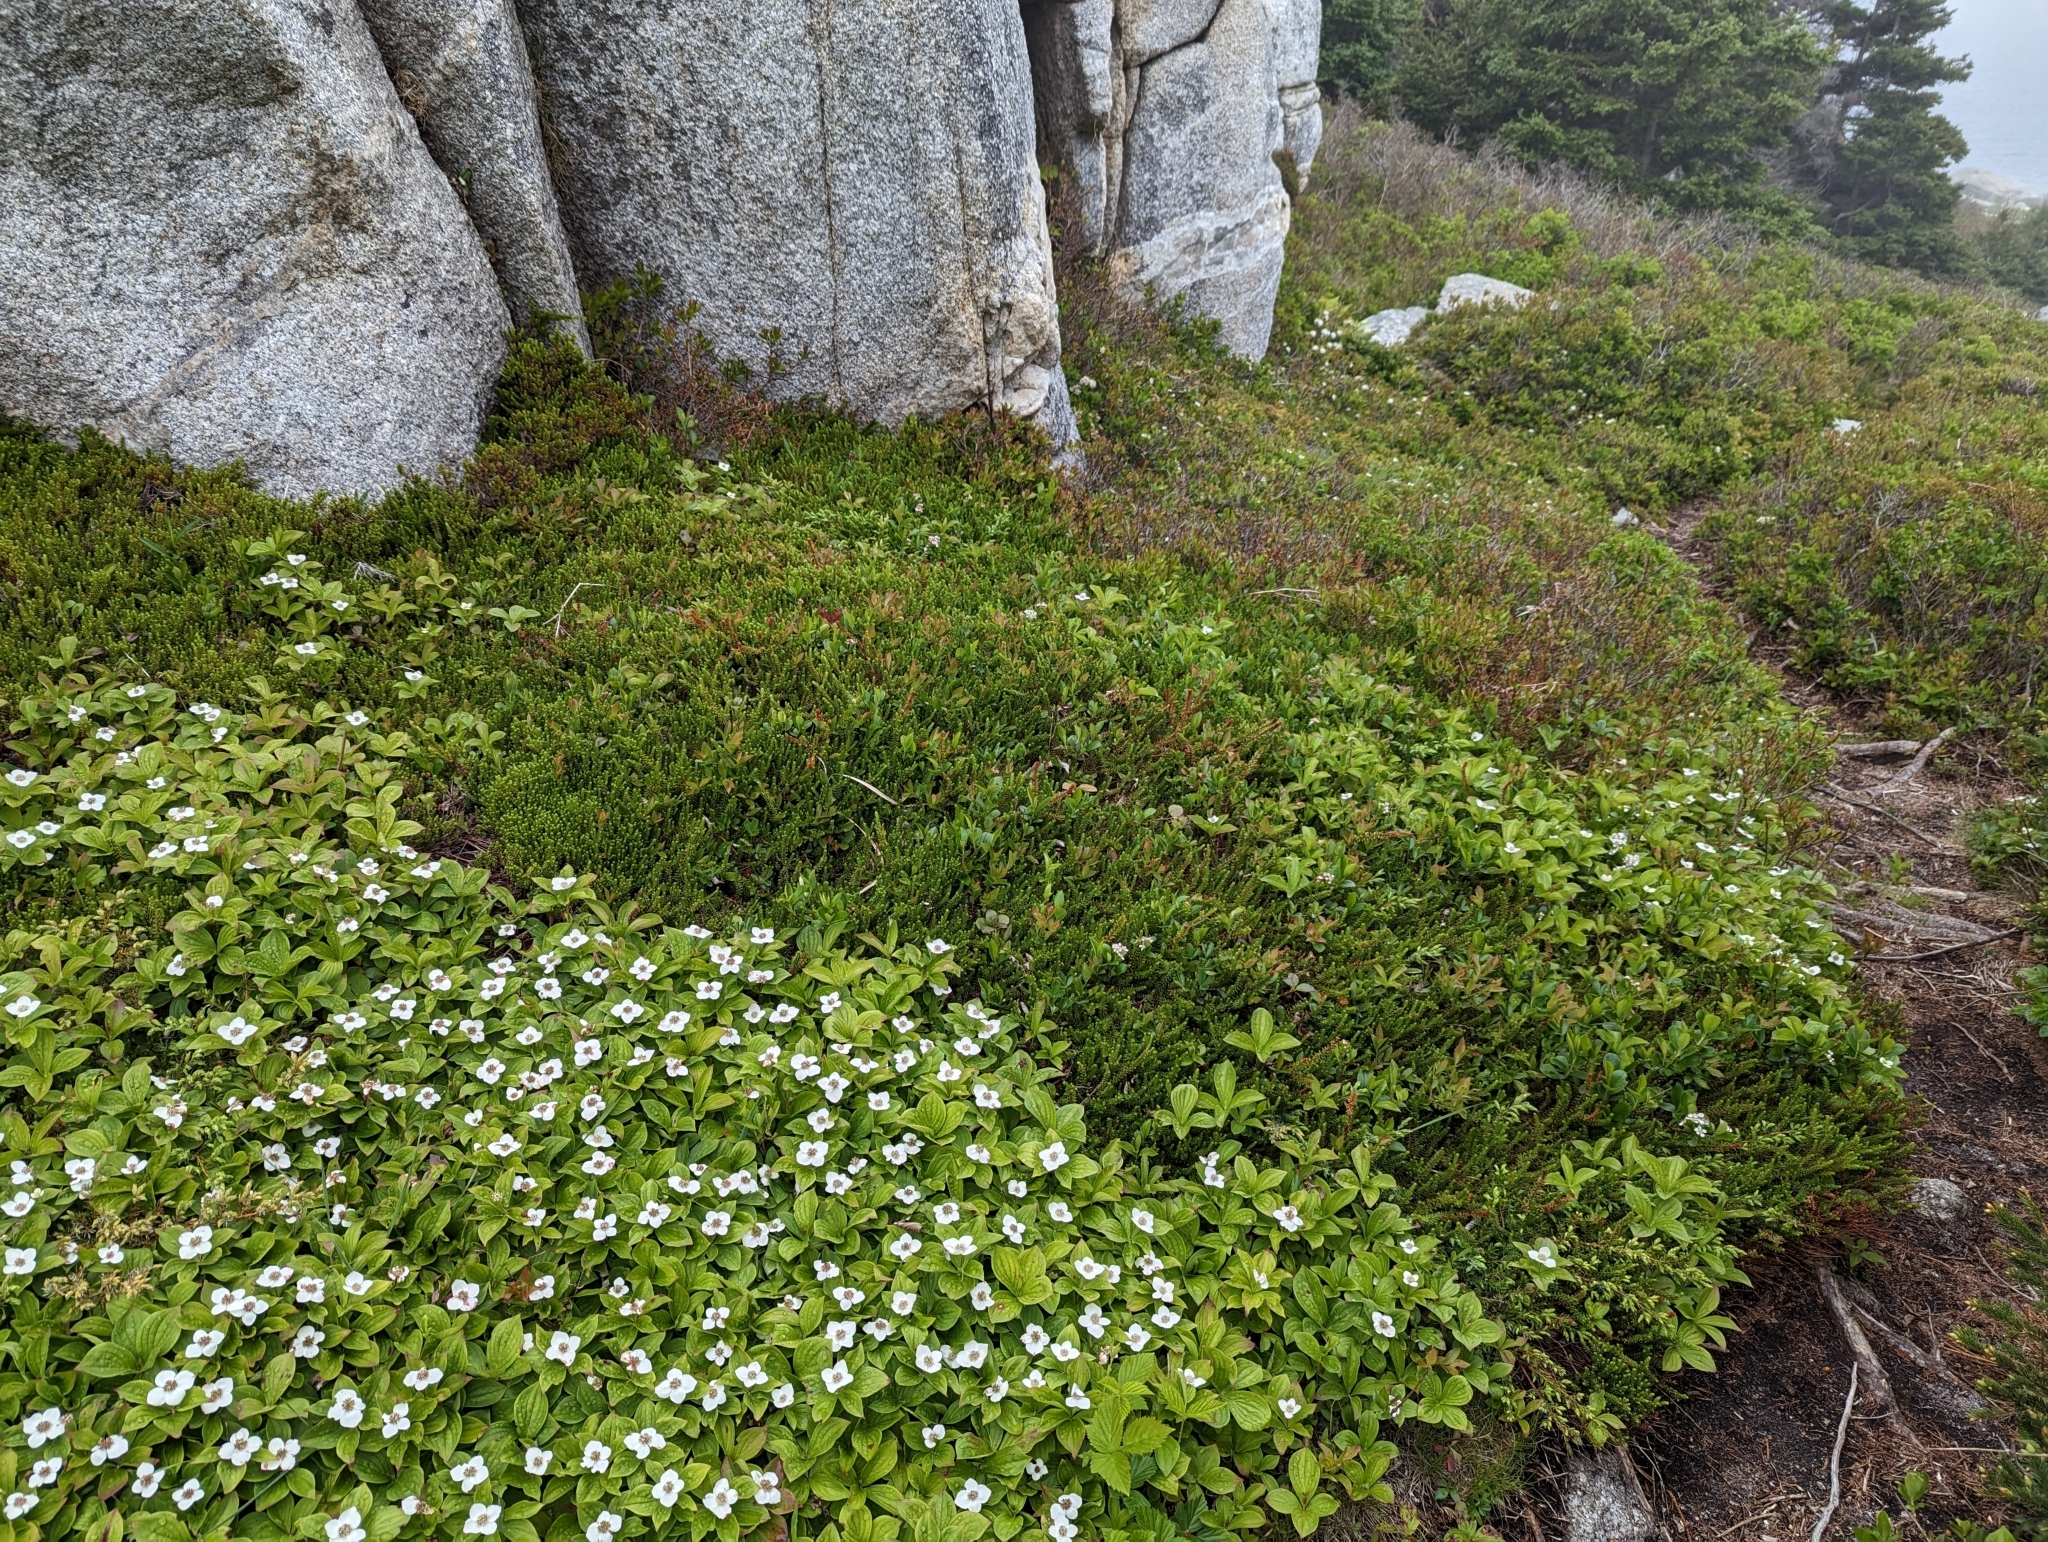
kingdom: Plantae
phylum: Tracheophyta
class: Magnoliopsida
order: Cornales
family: Cornaceae
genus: Cornus
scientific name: Cornus canadensis
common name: Creeping dogwood
